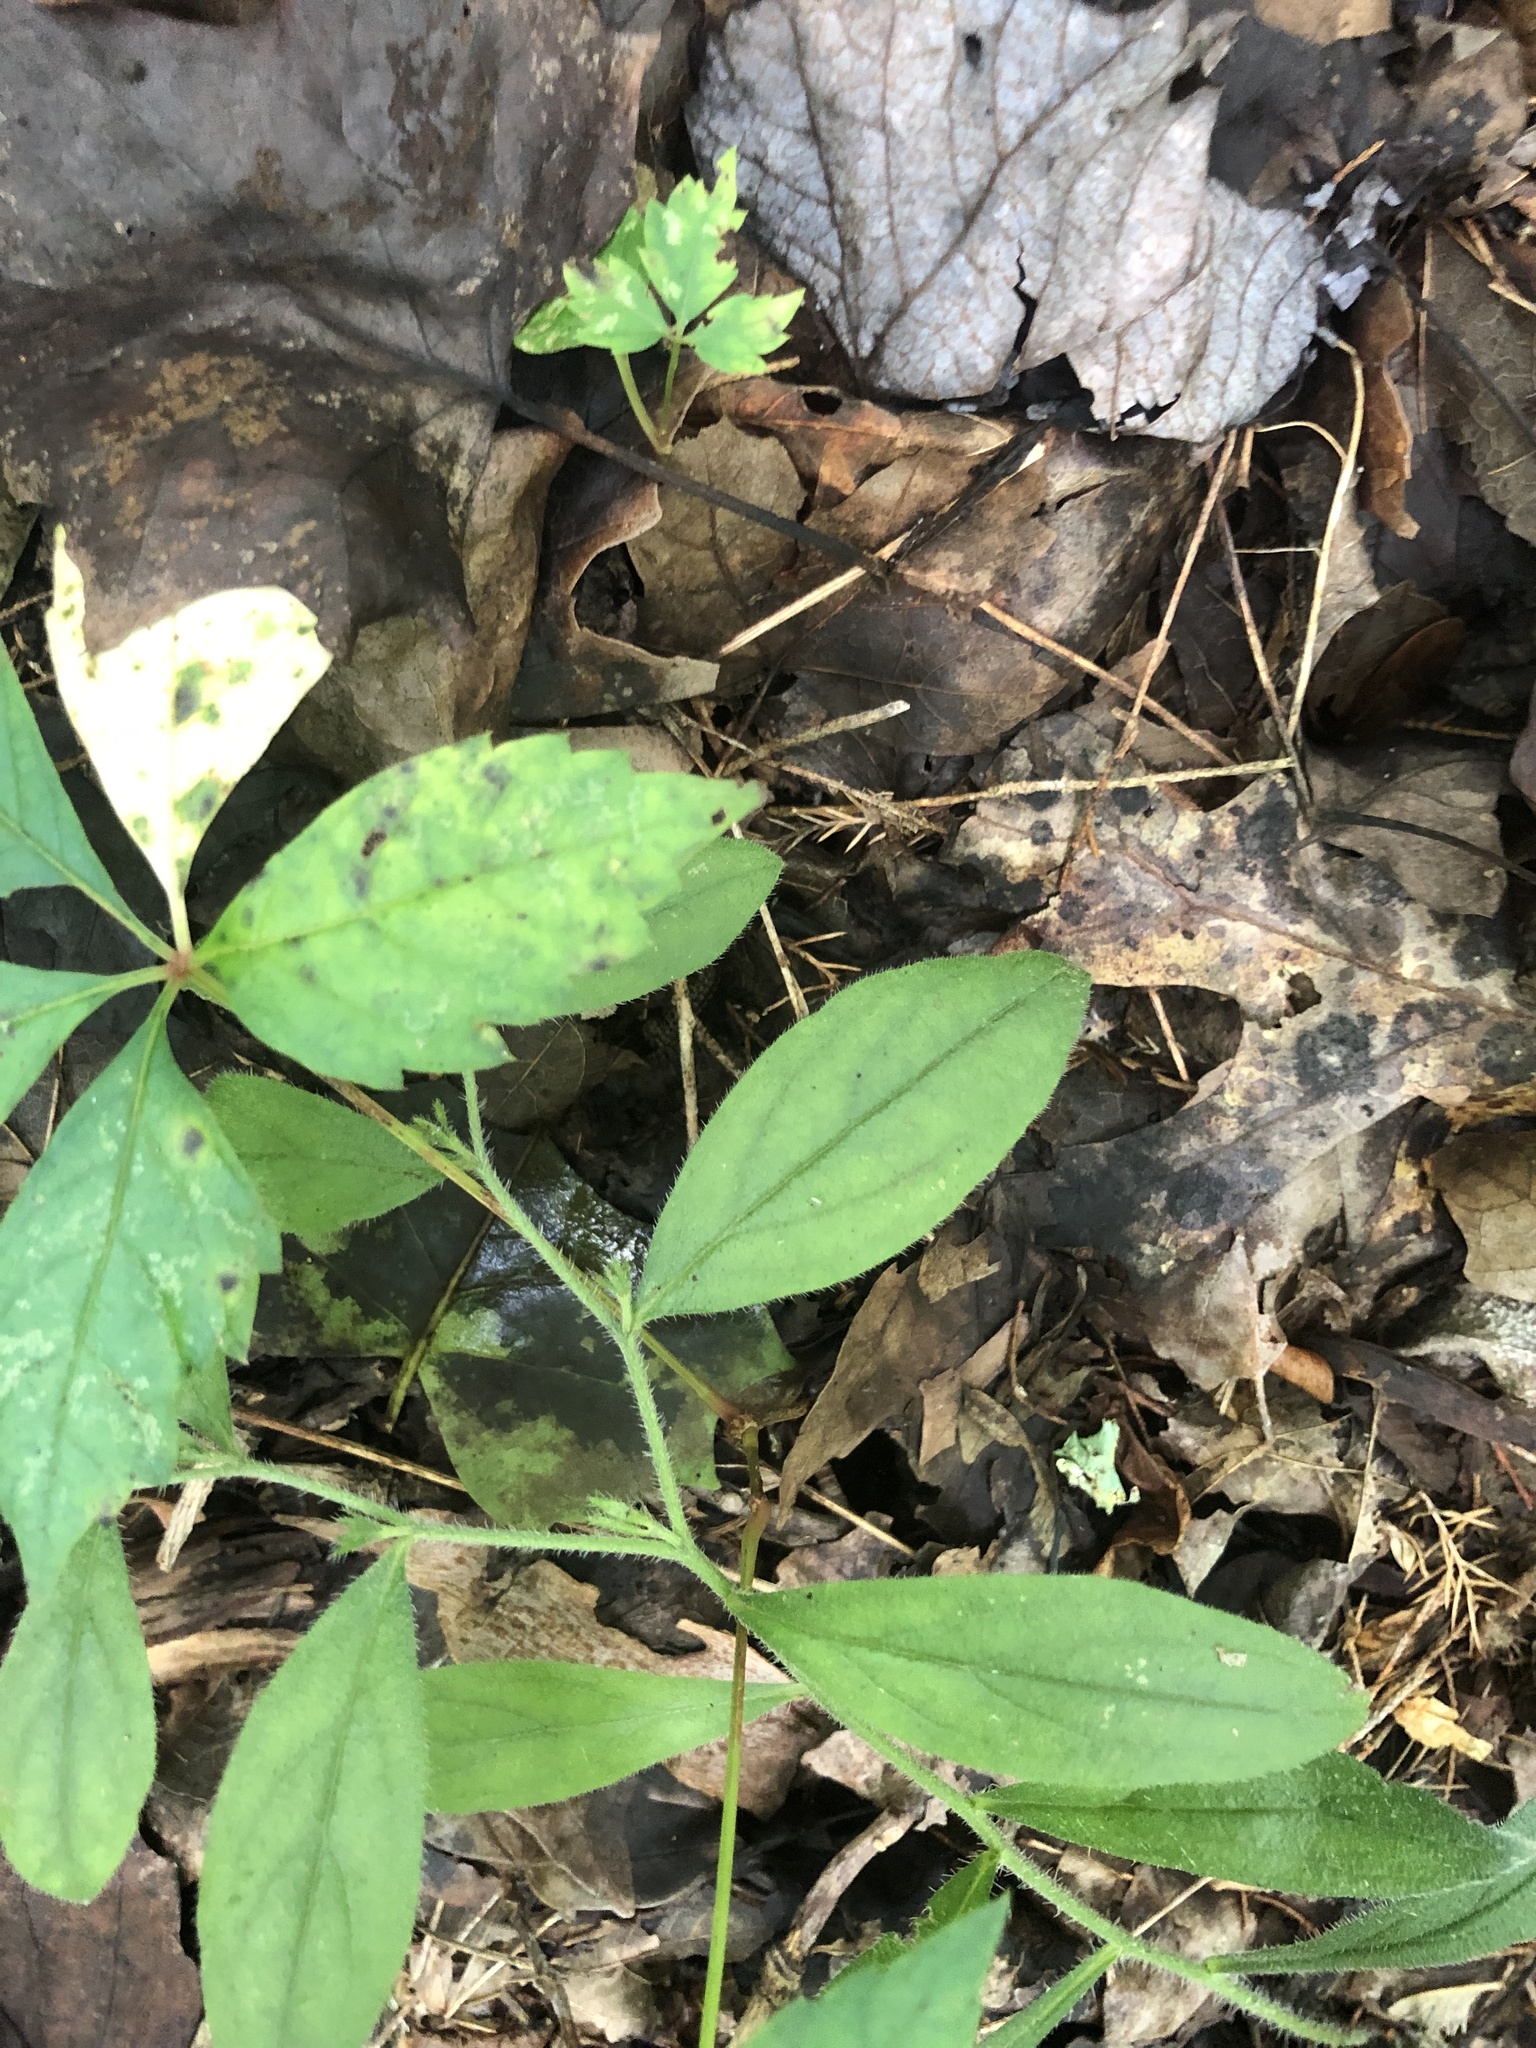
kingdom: Plantae
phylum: Tracheophyta
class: Magnoliopsida
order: Boraginales
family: Boraginaceae
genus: Lithospermum
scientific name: Lithospermum tuberosum
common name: Southern stoneseed
